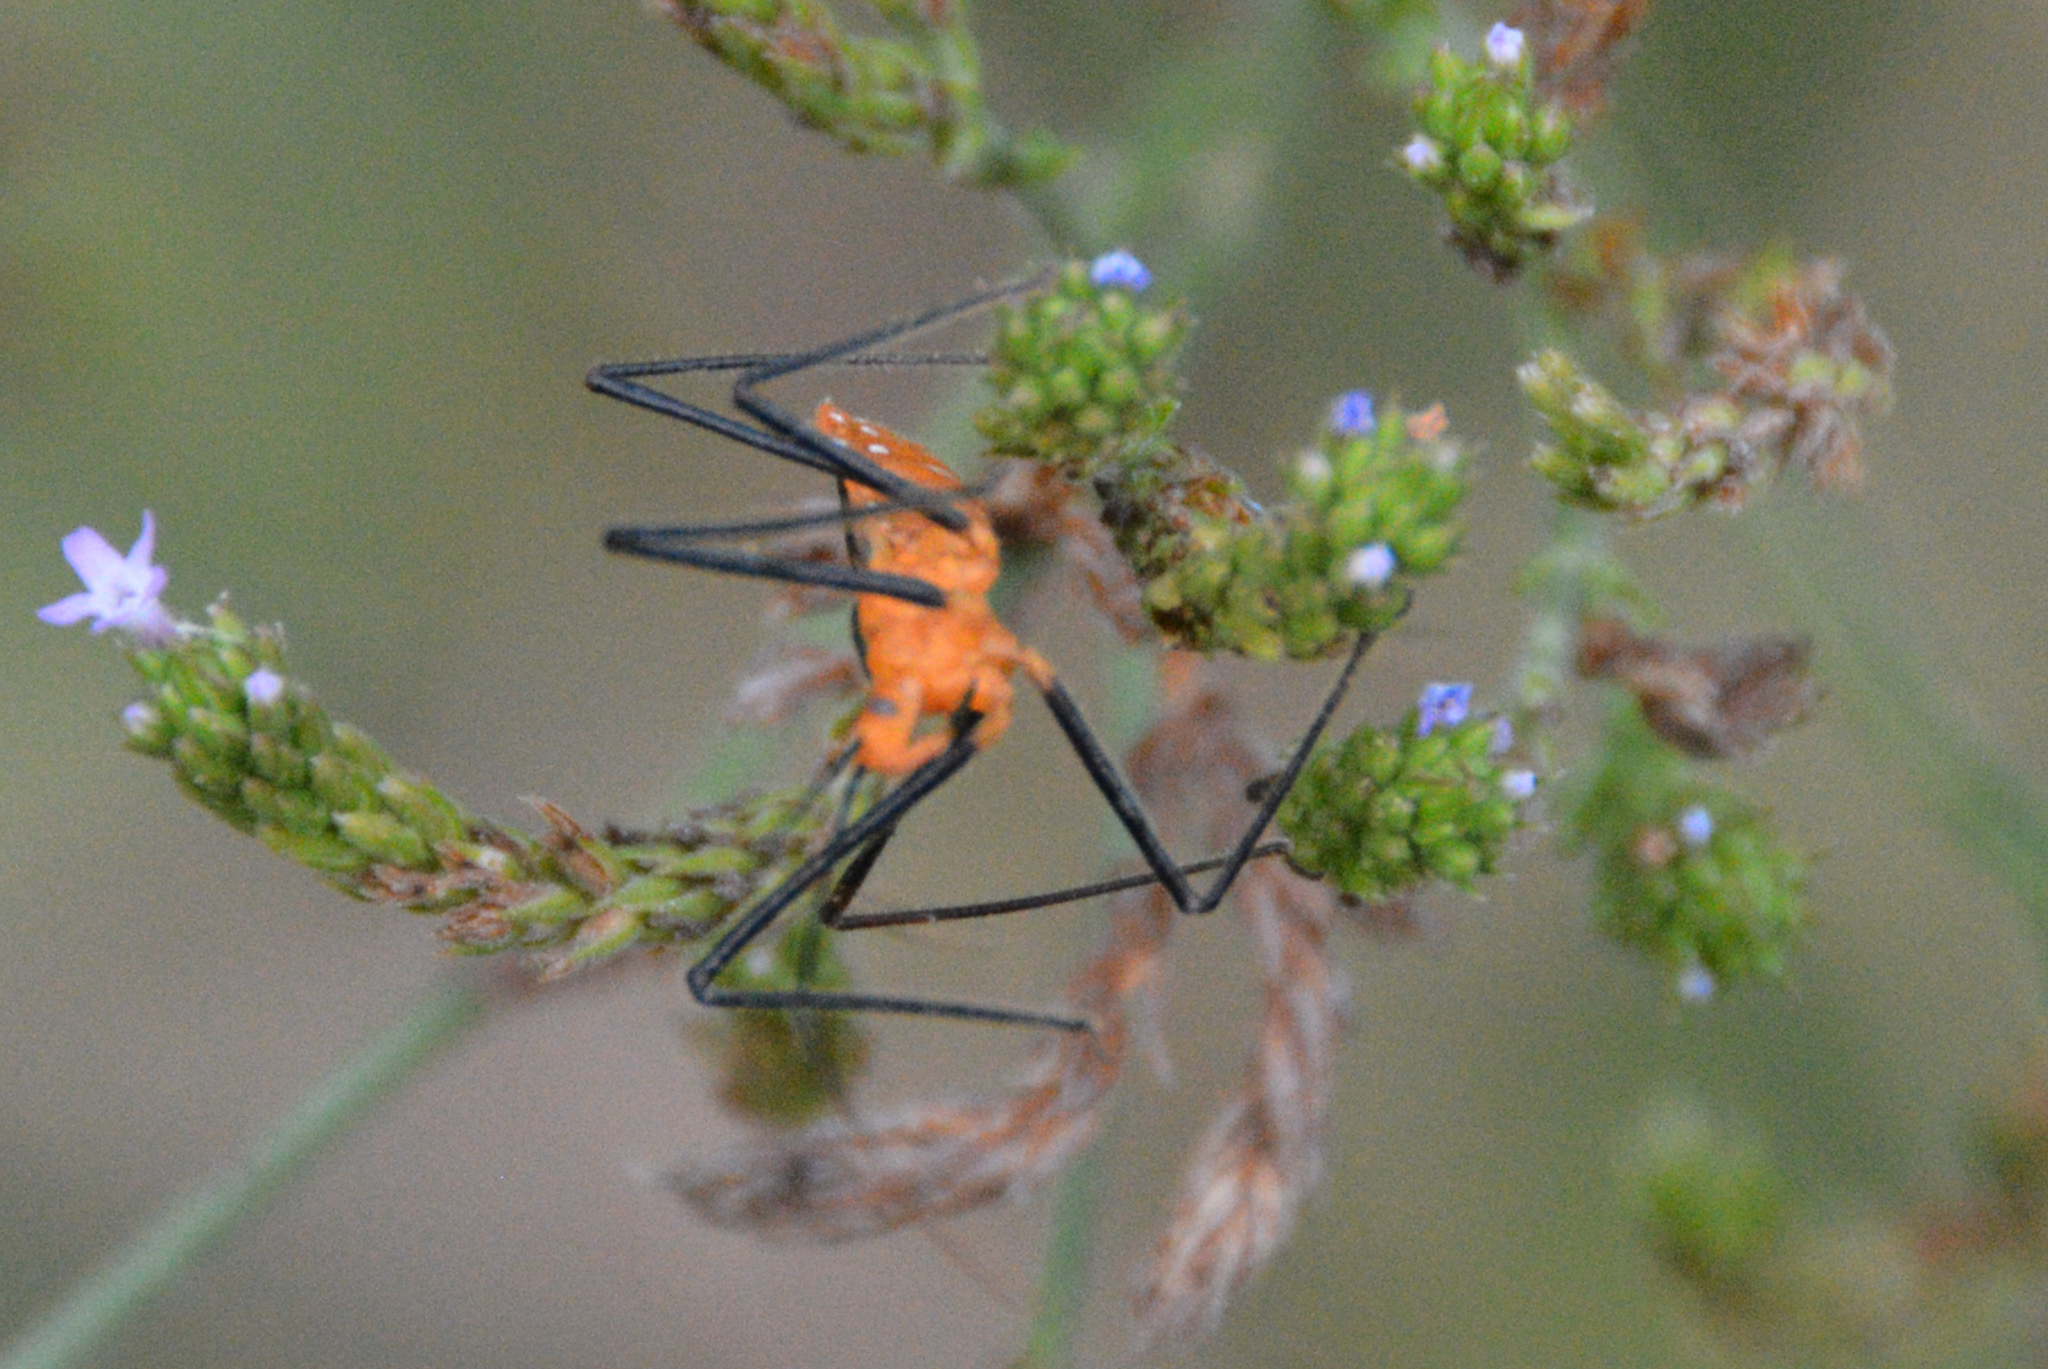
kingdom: Animalia
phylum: Arthropoda
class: Insecta
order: Hemiptera
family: Reduviidae
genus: Zelus
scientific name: Zelus longipes
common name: Milkweed assassin bug
